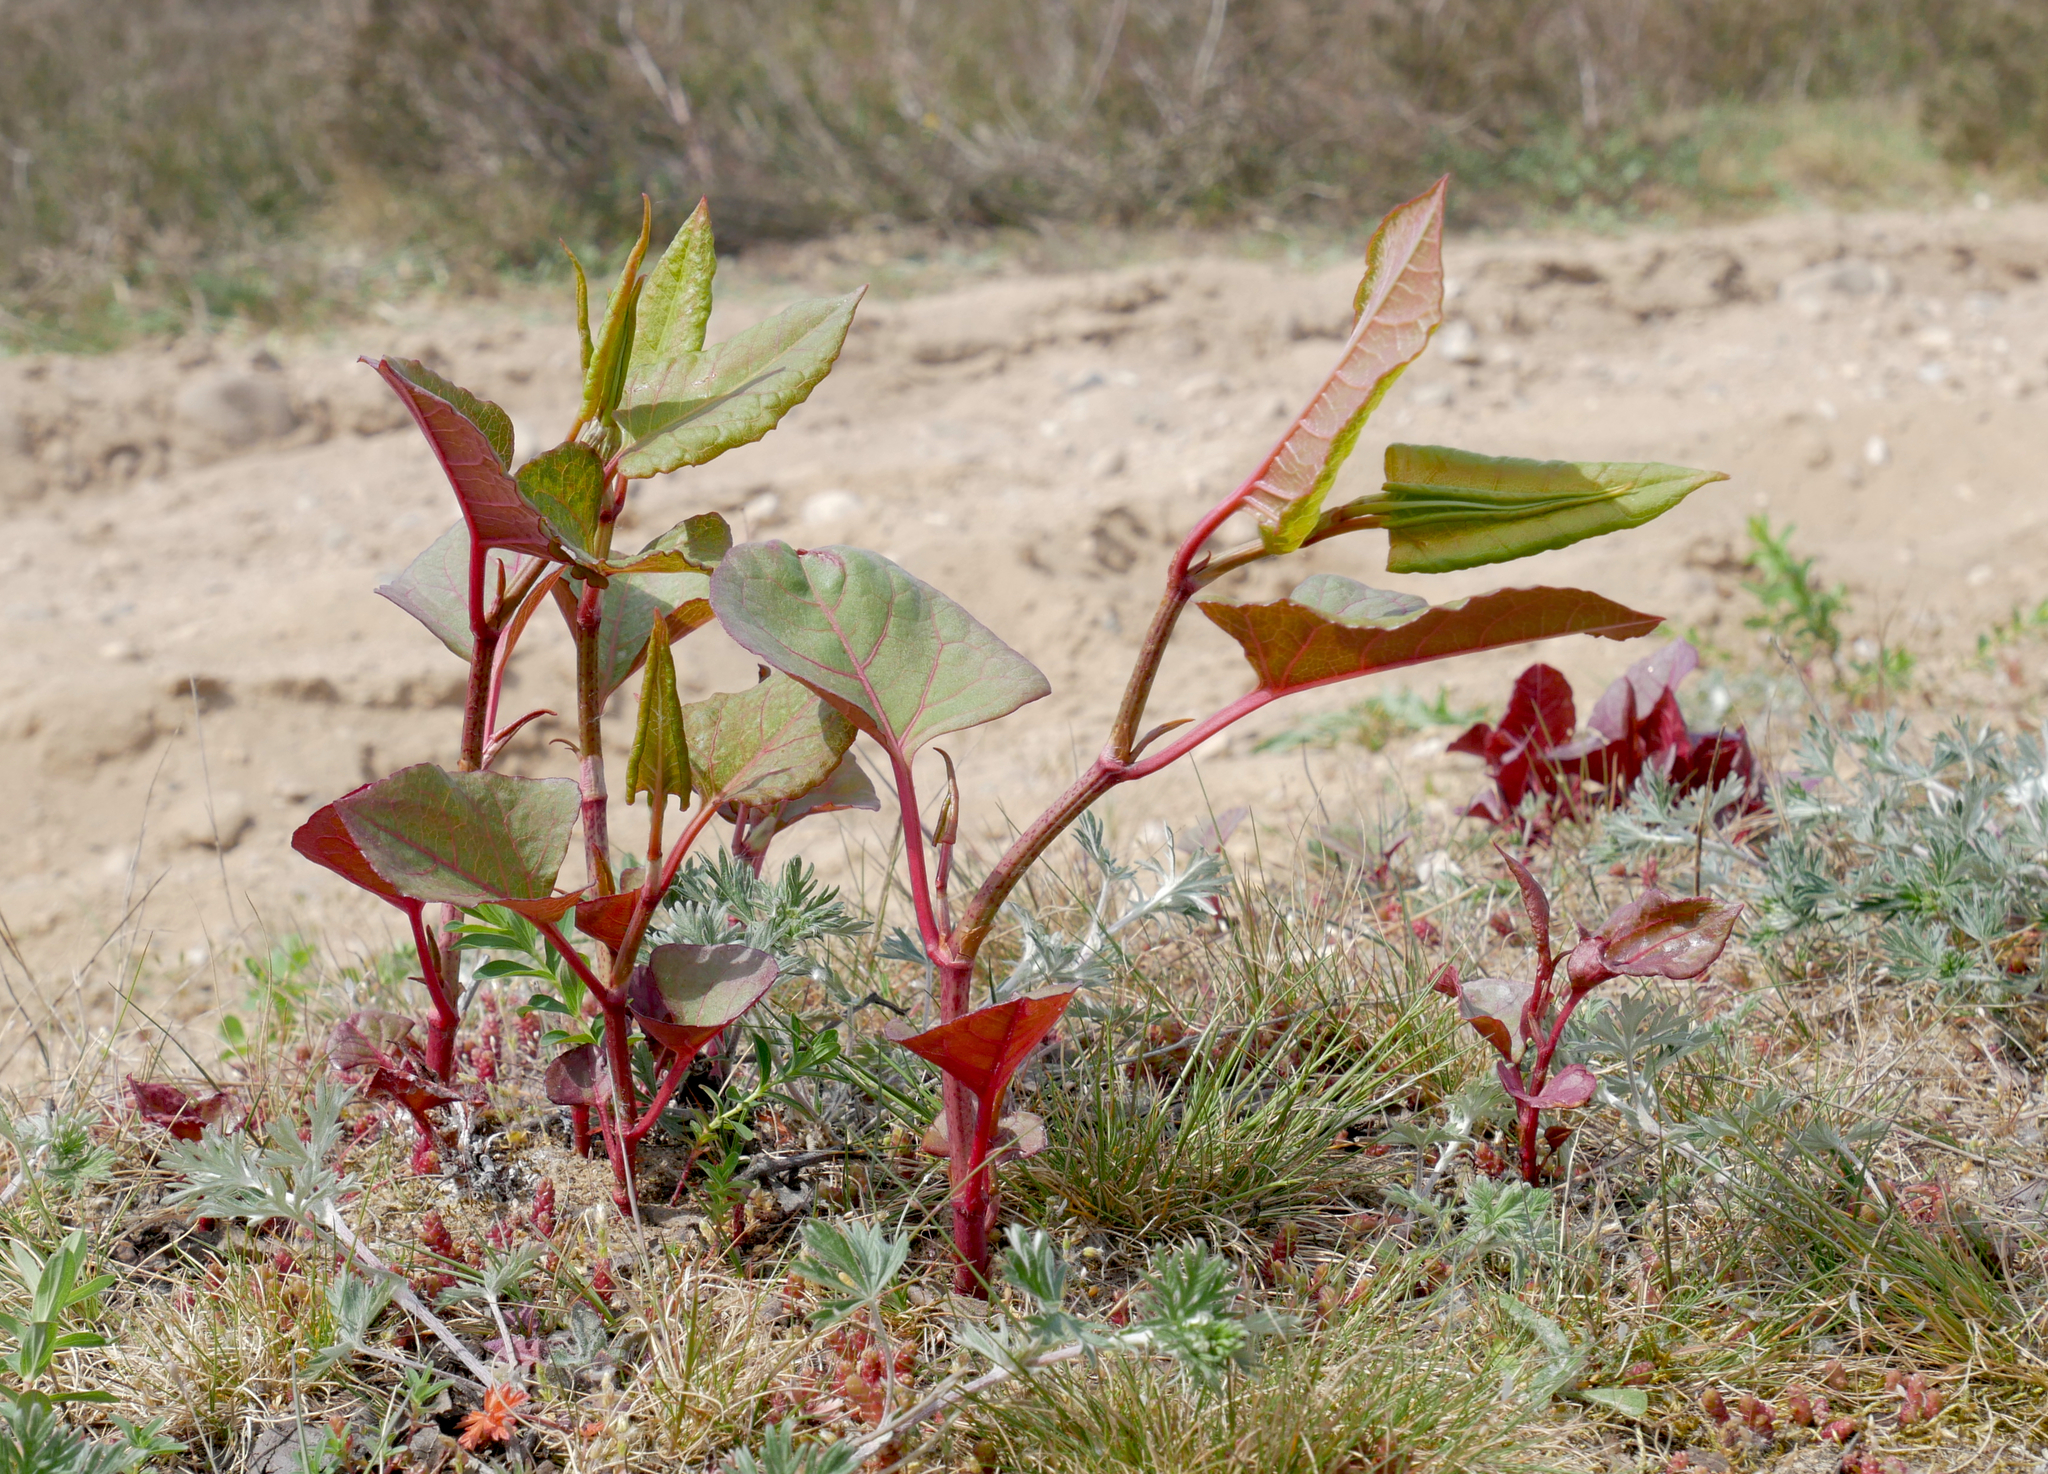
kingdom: Plantae
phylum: Tracheophyta
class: Magnoliopsida
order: Caryophyllales
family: Polygonaceae
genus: Reynoutria
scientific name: Reynoutria japonica
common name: Japanese knotweed
